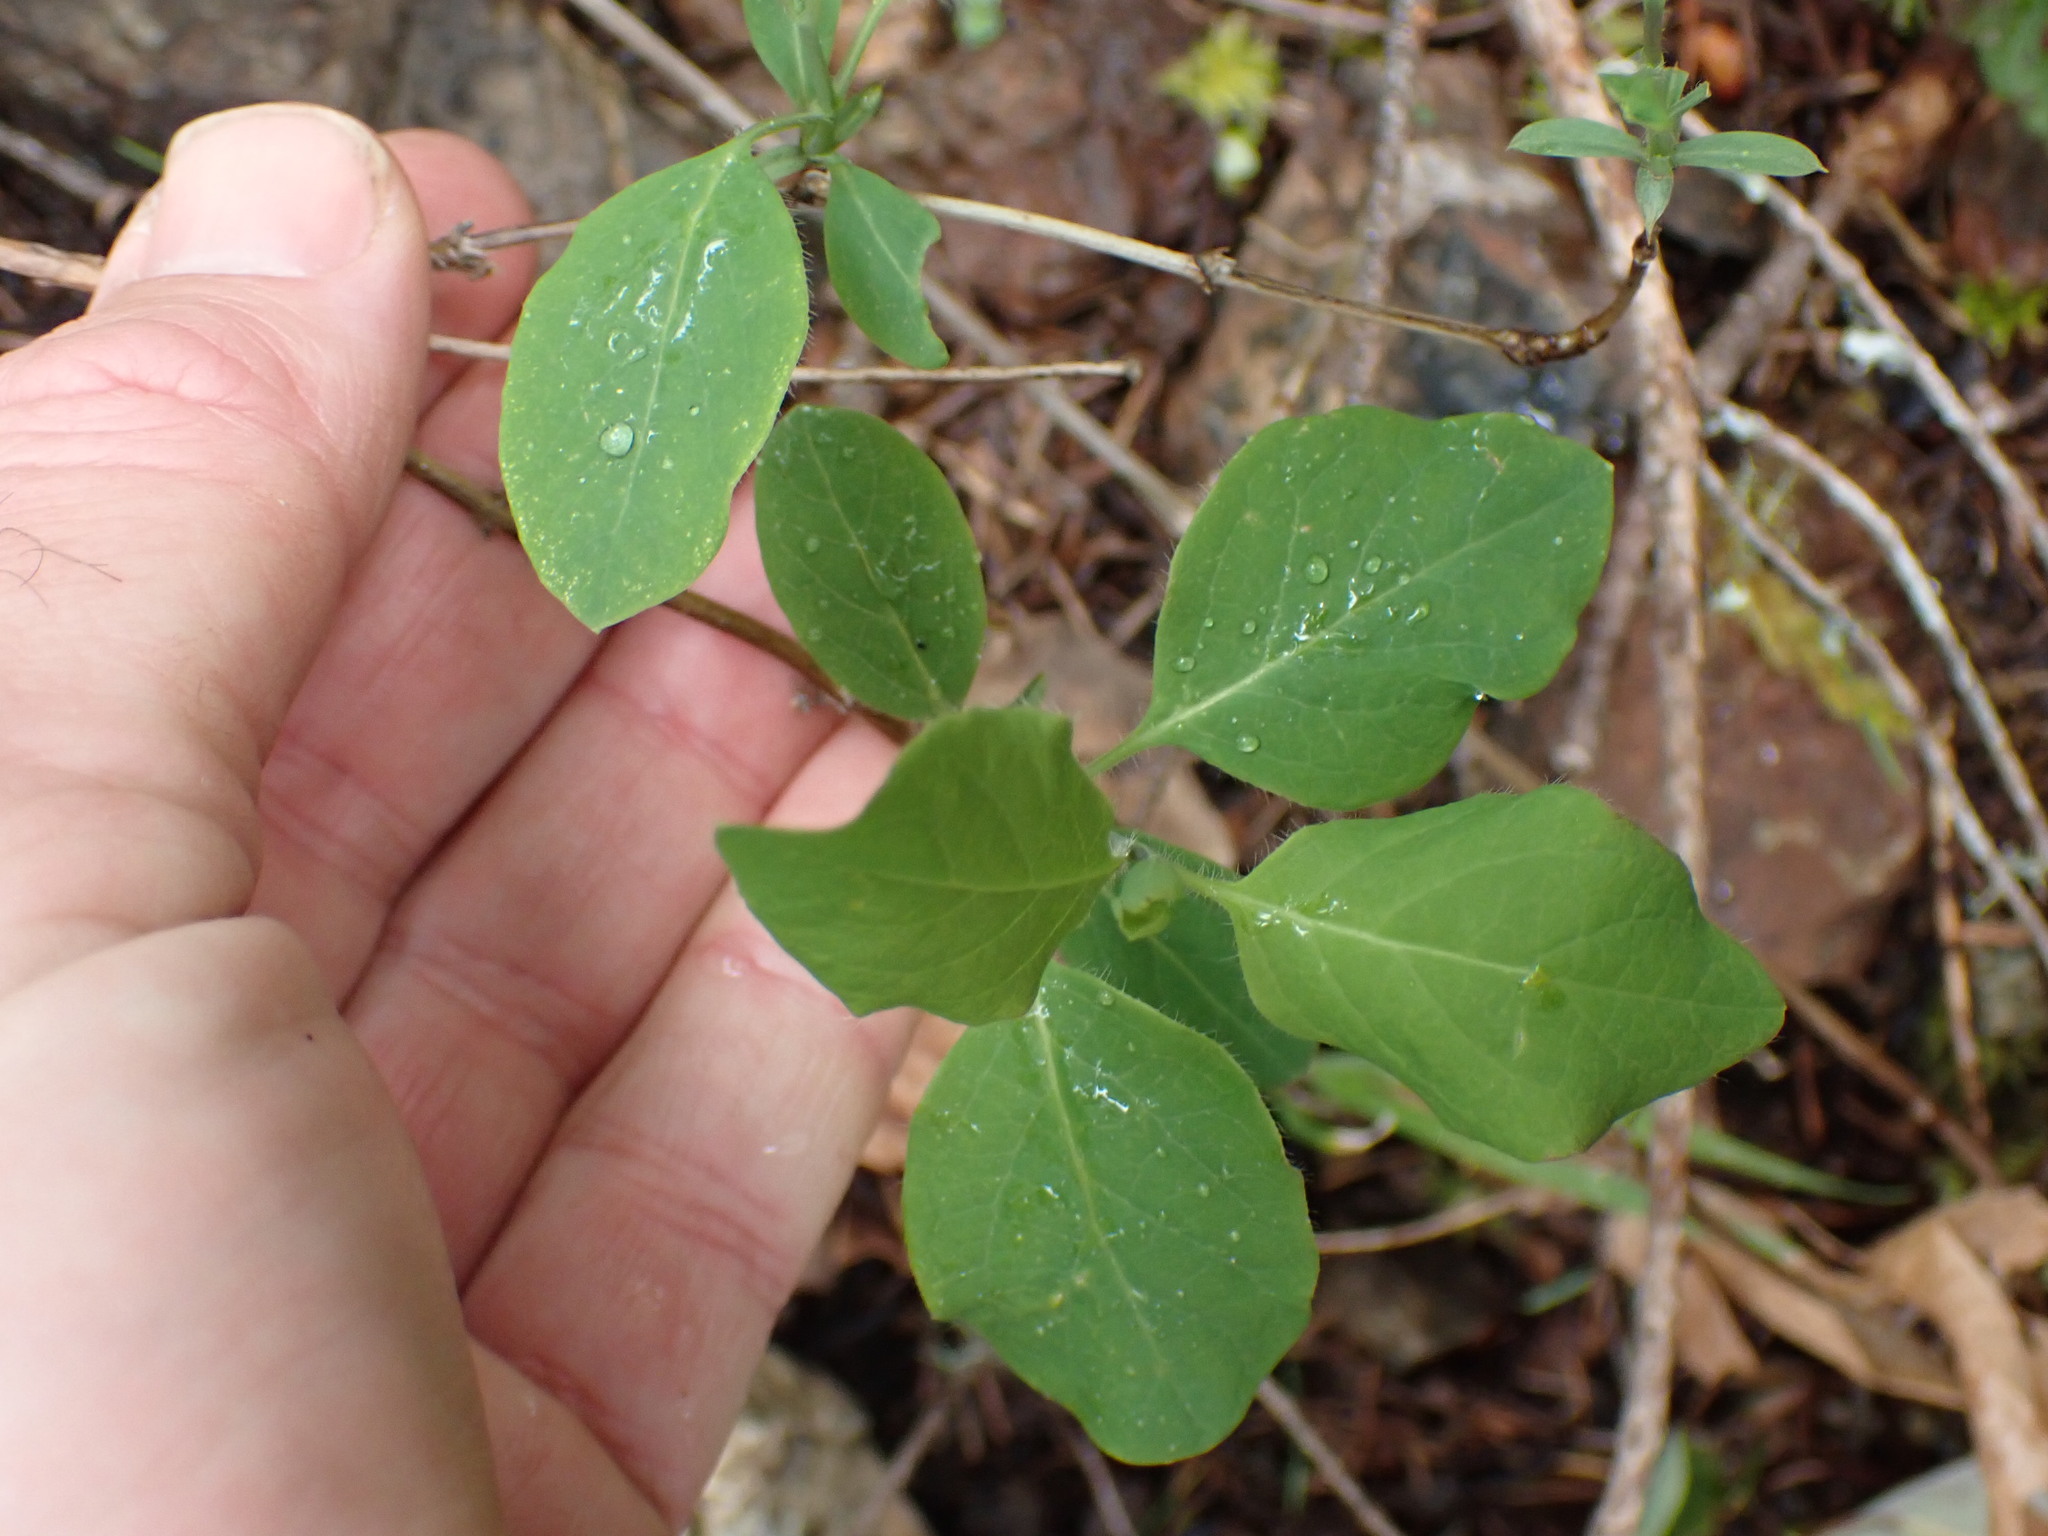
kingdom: Plantae
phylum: Tracheophyta
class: Magnoliopsida
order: Dipsacales
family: Caprifoliaceae
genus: Lonicera
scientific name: Lonicera ciliosa
